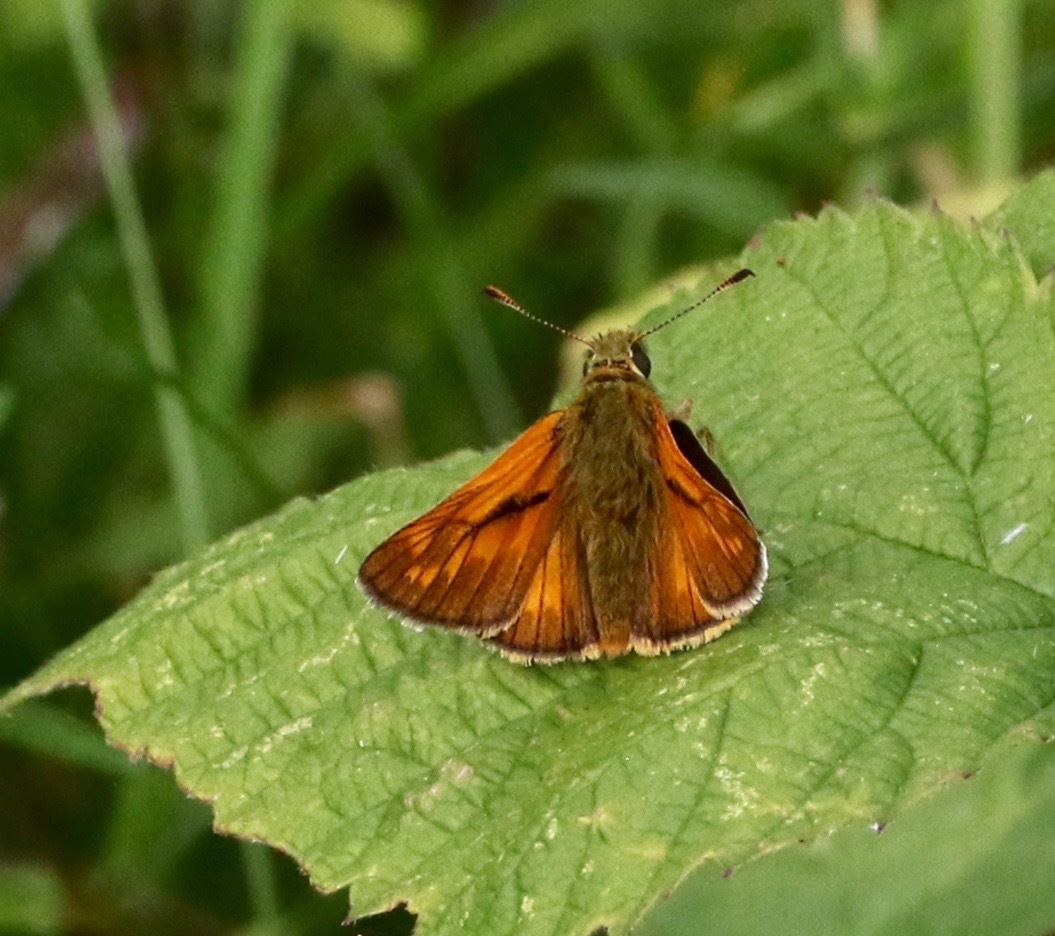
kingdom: Animalia
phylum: Arthropoda
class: Insecta
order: Lepidoptera
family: Hesperiidae
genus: Ochlodes
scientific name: Ochlodes venata
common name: Large skipper
